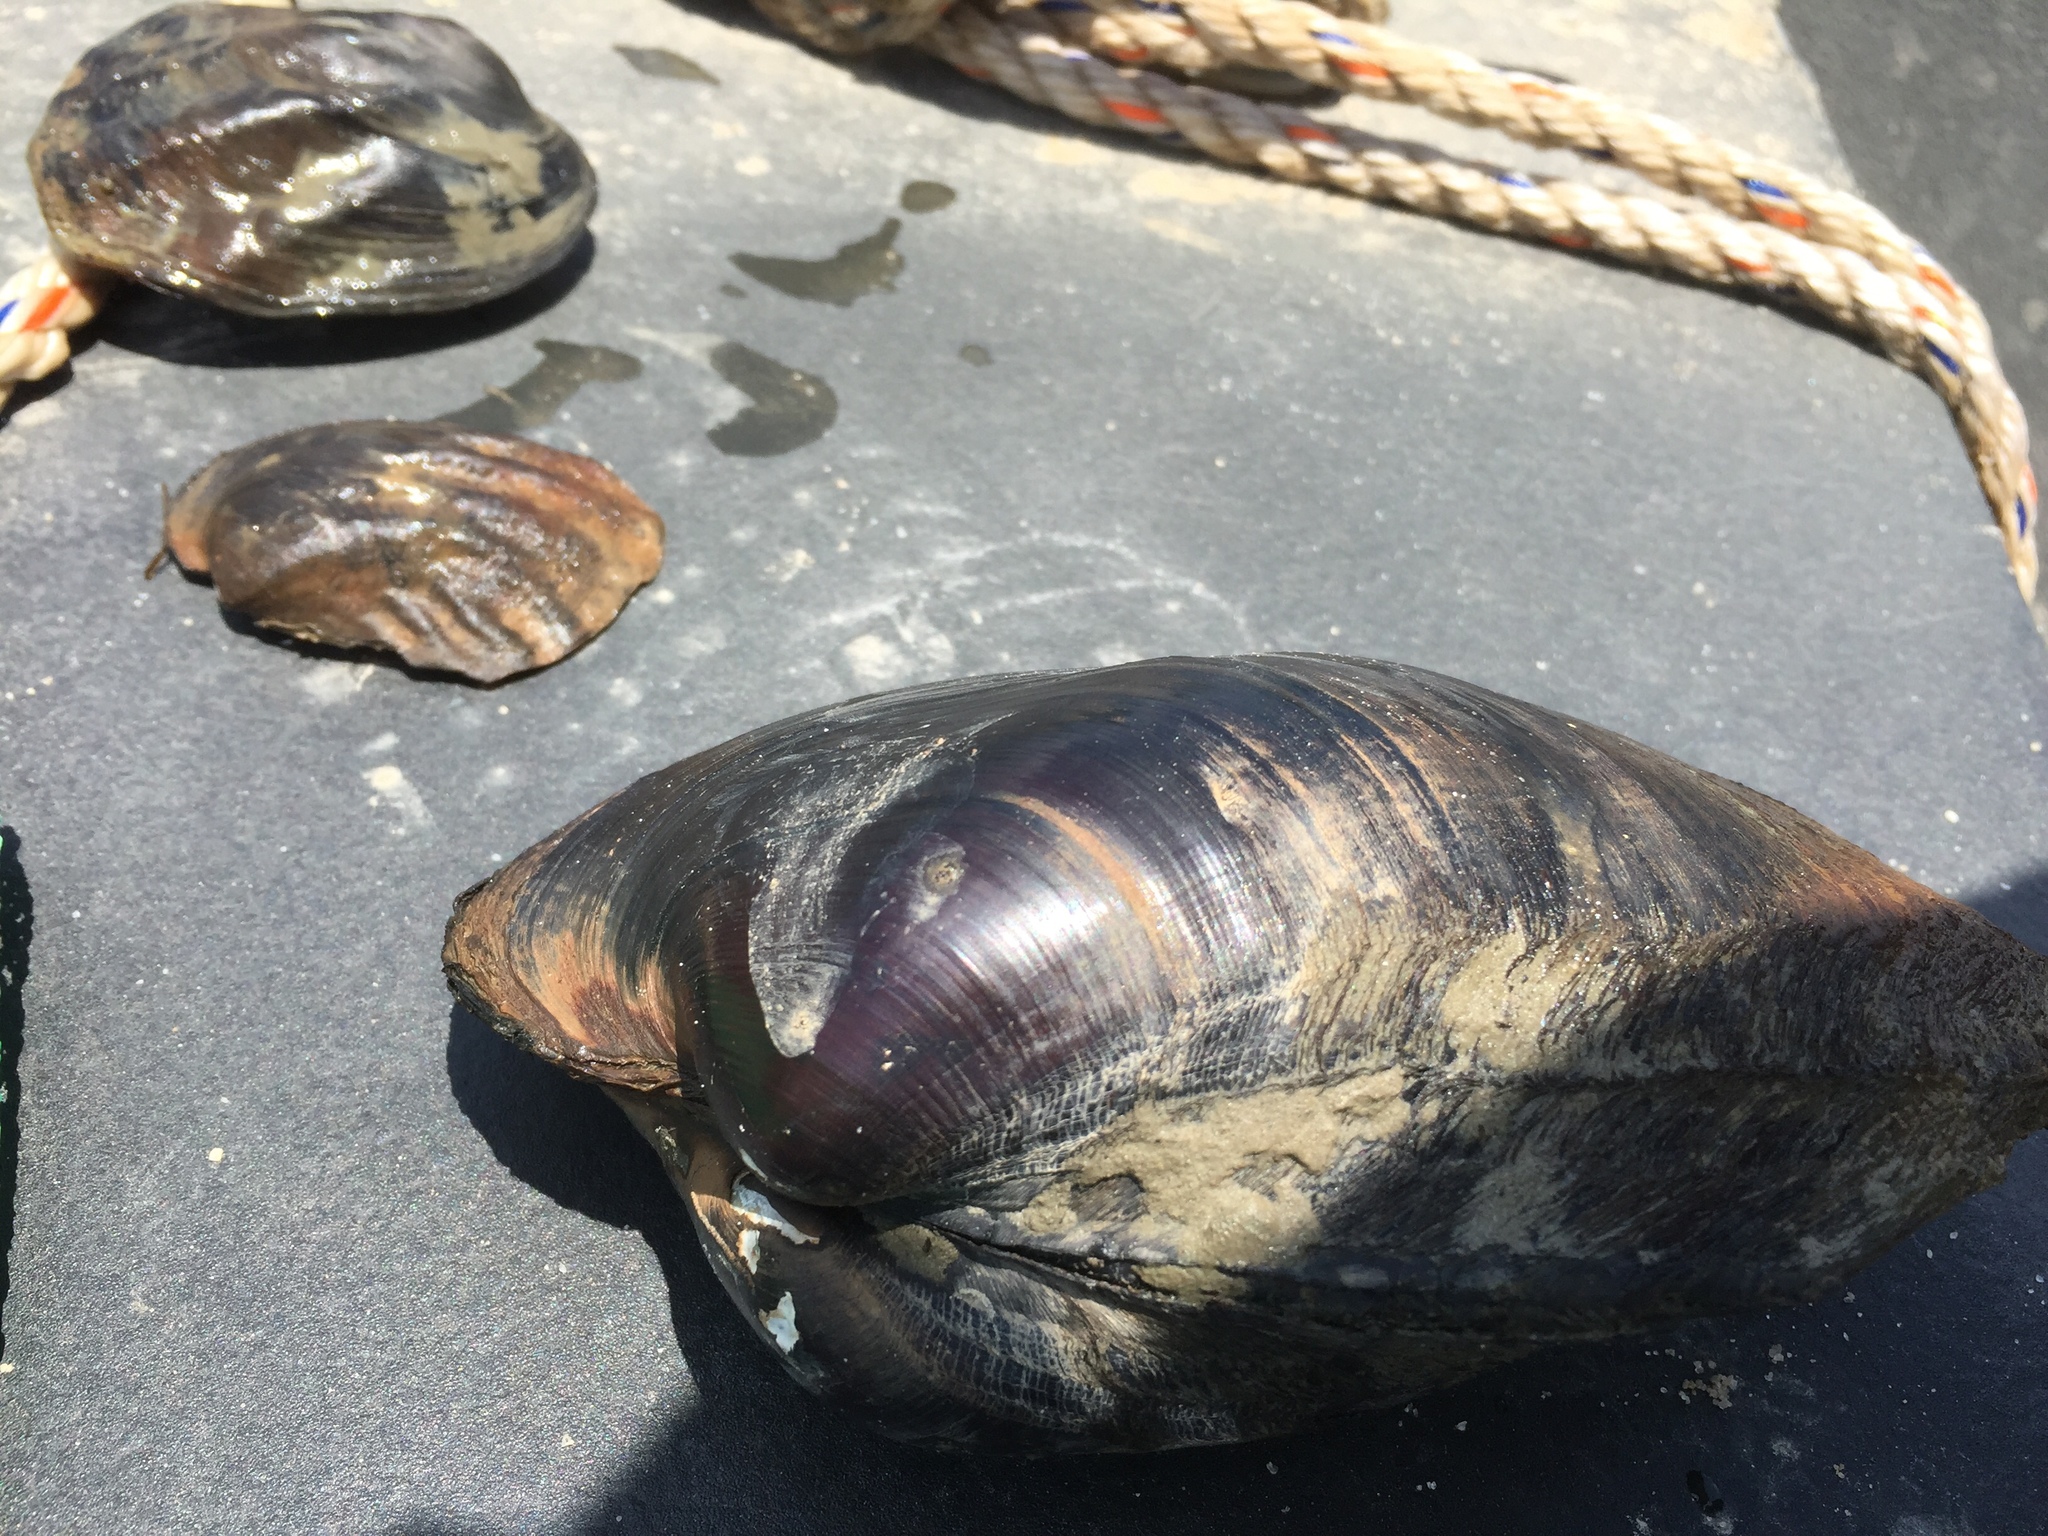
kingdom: Animalia
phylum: Mollusca
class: Bivalvia
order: Unionida
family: Unionidae
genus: Potamilus
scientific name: Potamilus purpuratus
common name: Bleufer
